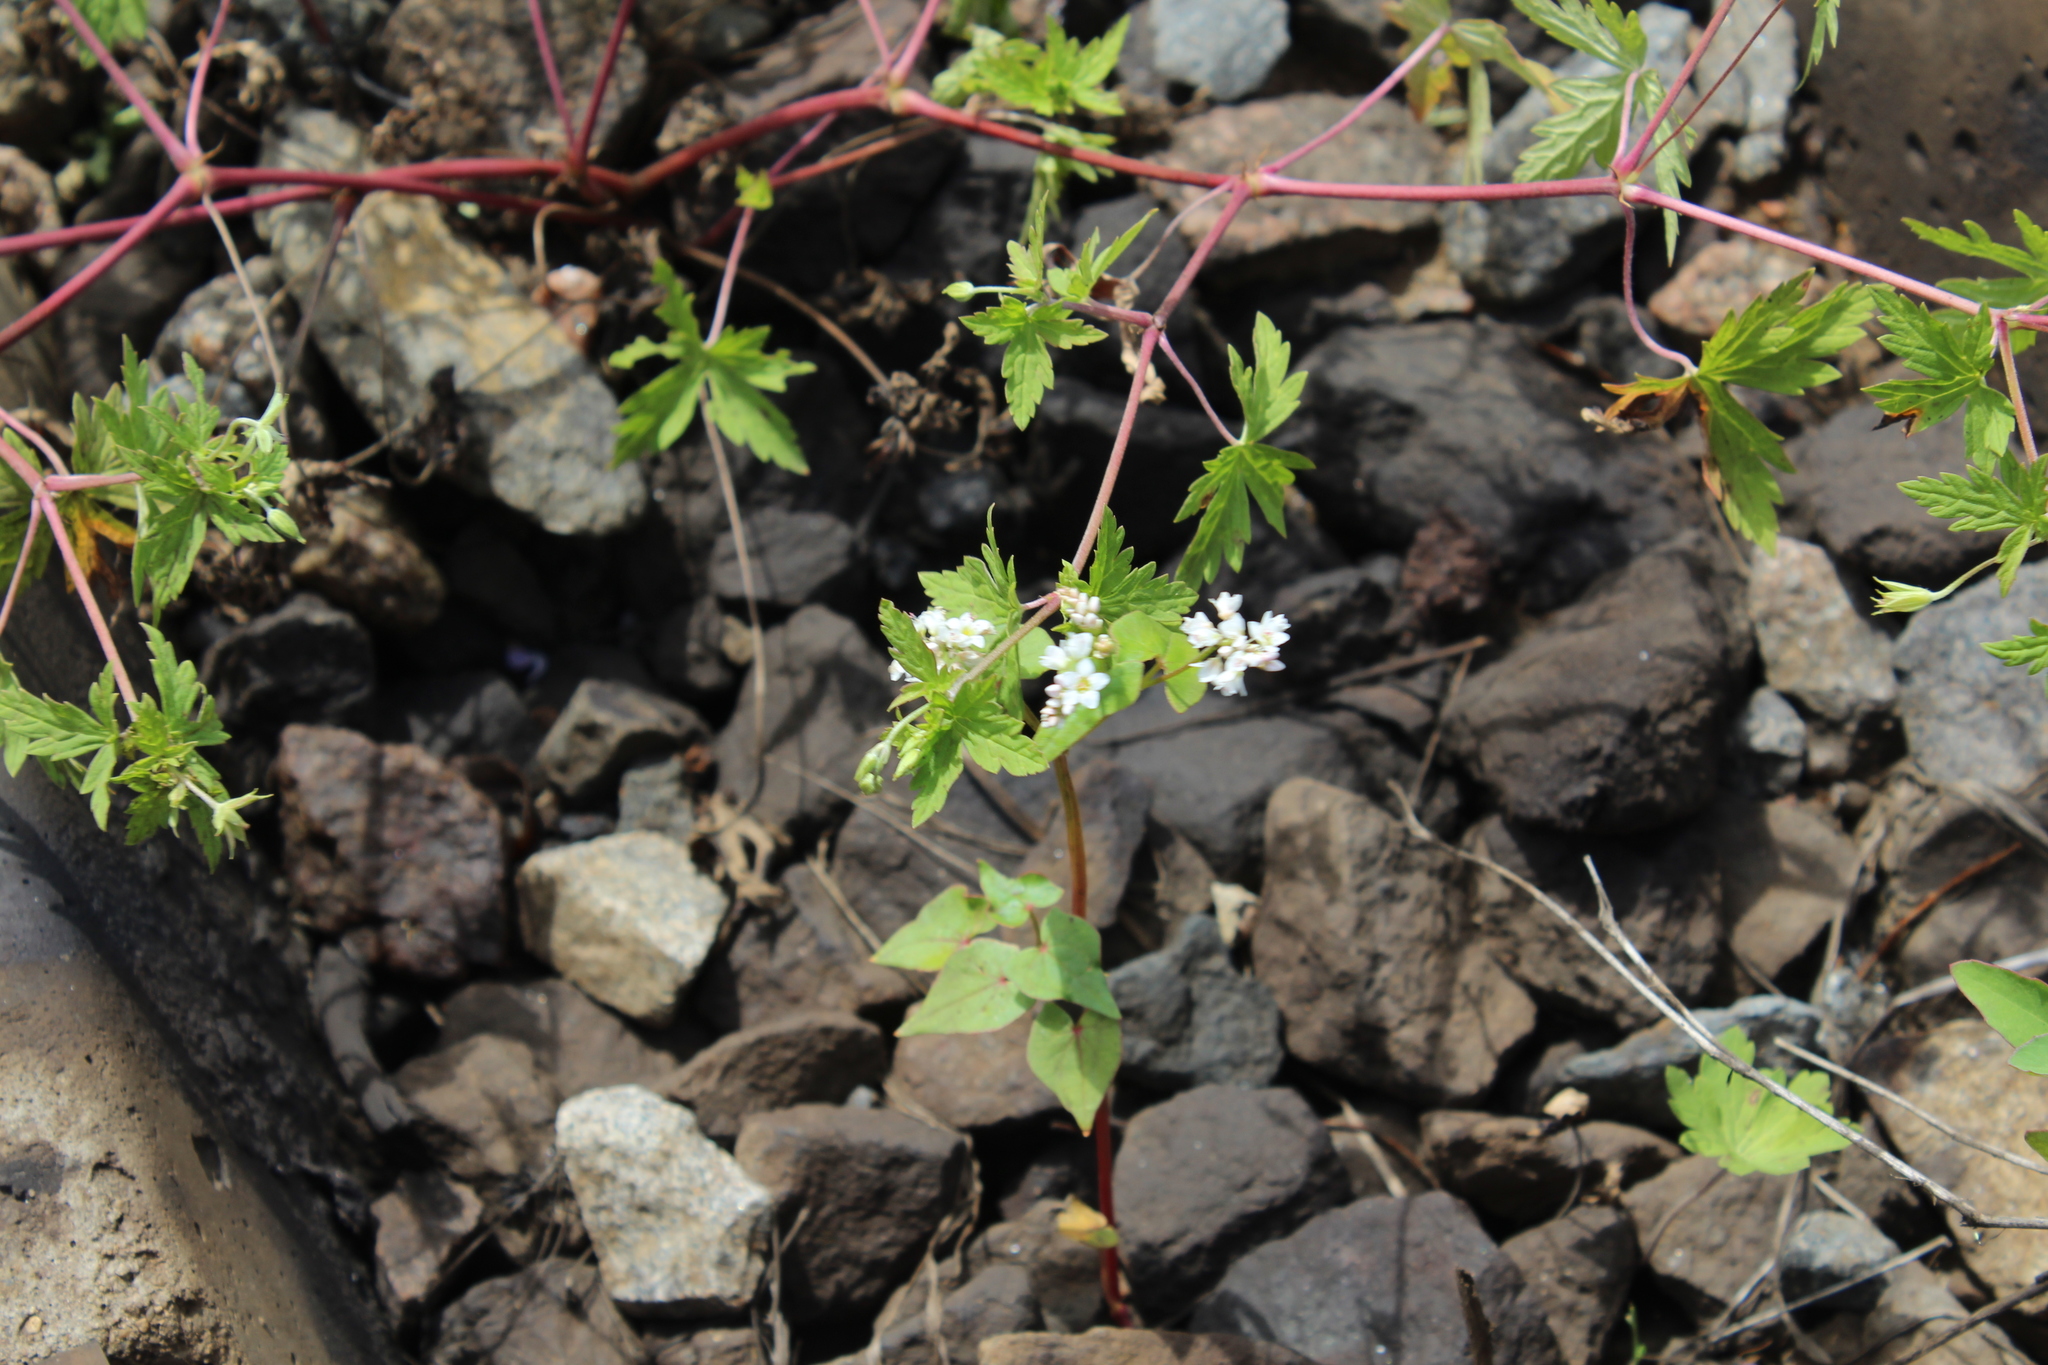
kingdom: Plantae
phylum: Tracheophyta
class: Magnoliopsida
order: Caryophyllales
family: Polygonaceae
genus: Fagopyrum
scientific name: Fagopyrum esculentum
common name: Buckwheat
